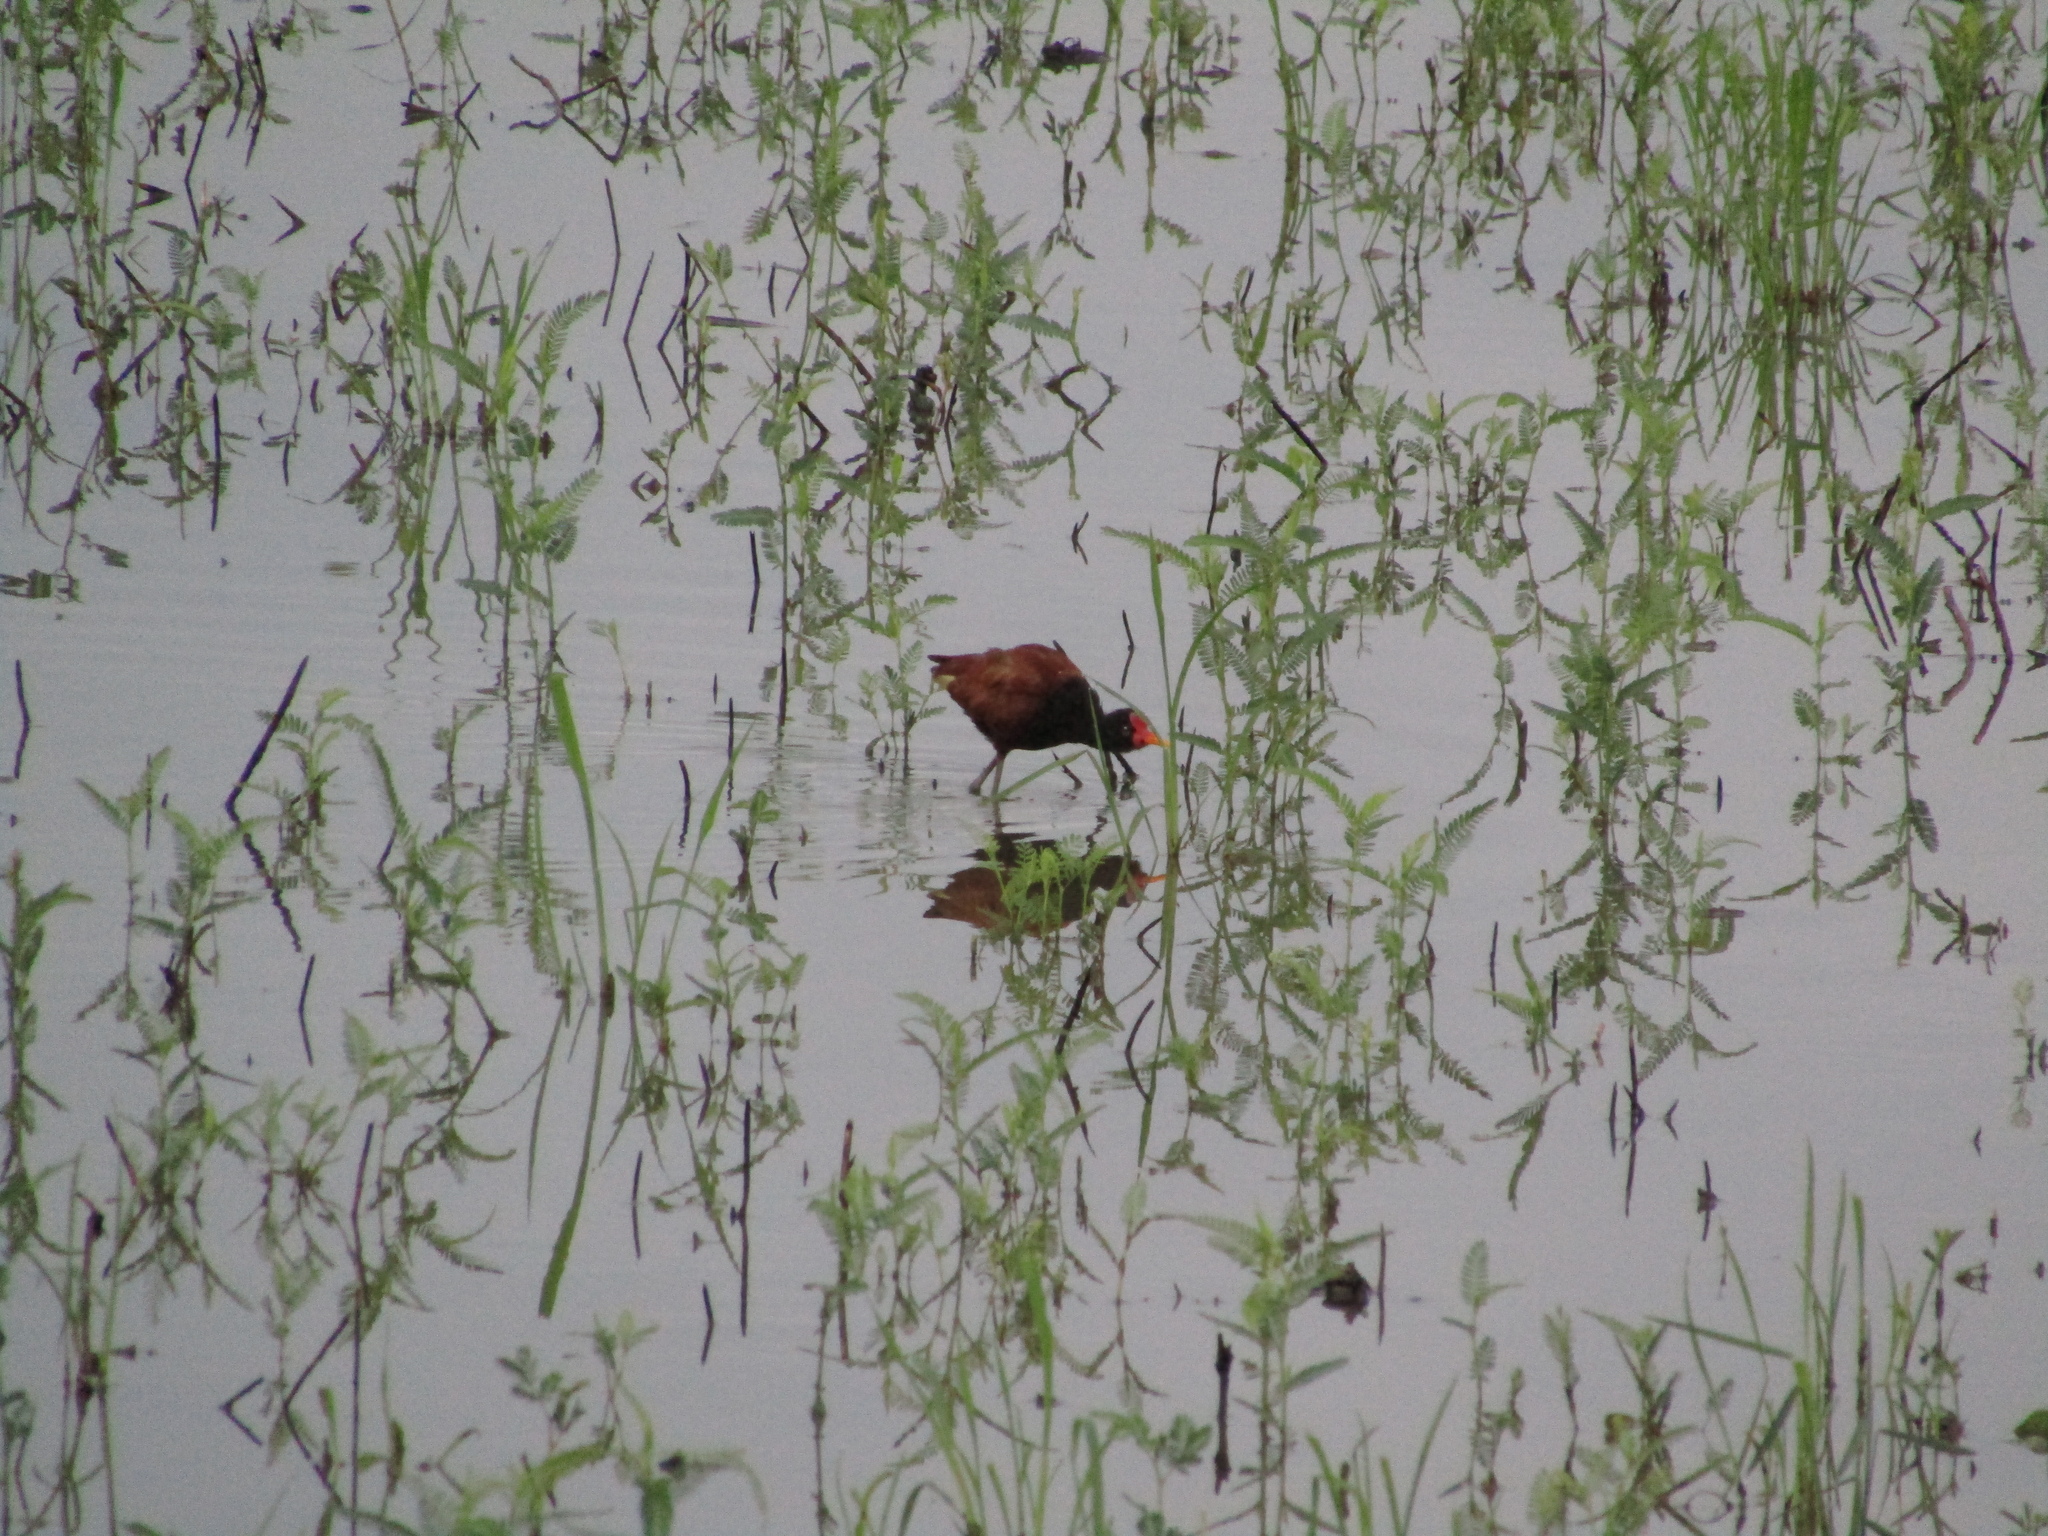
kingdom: Animalia
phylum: Chordata
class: Aves
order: Charadriiformes
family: Jacanidae
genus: Jacana
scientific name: Jacana jacana
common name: Wattled jacana
